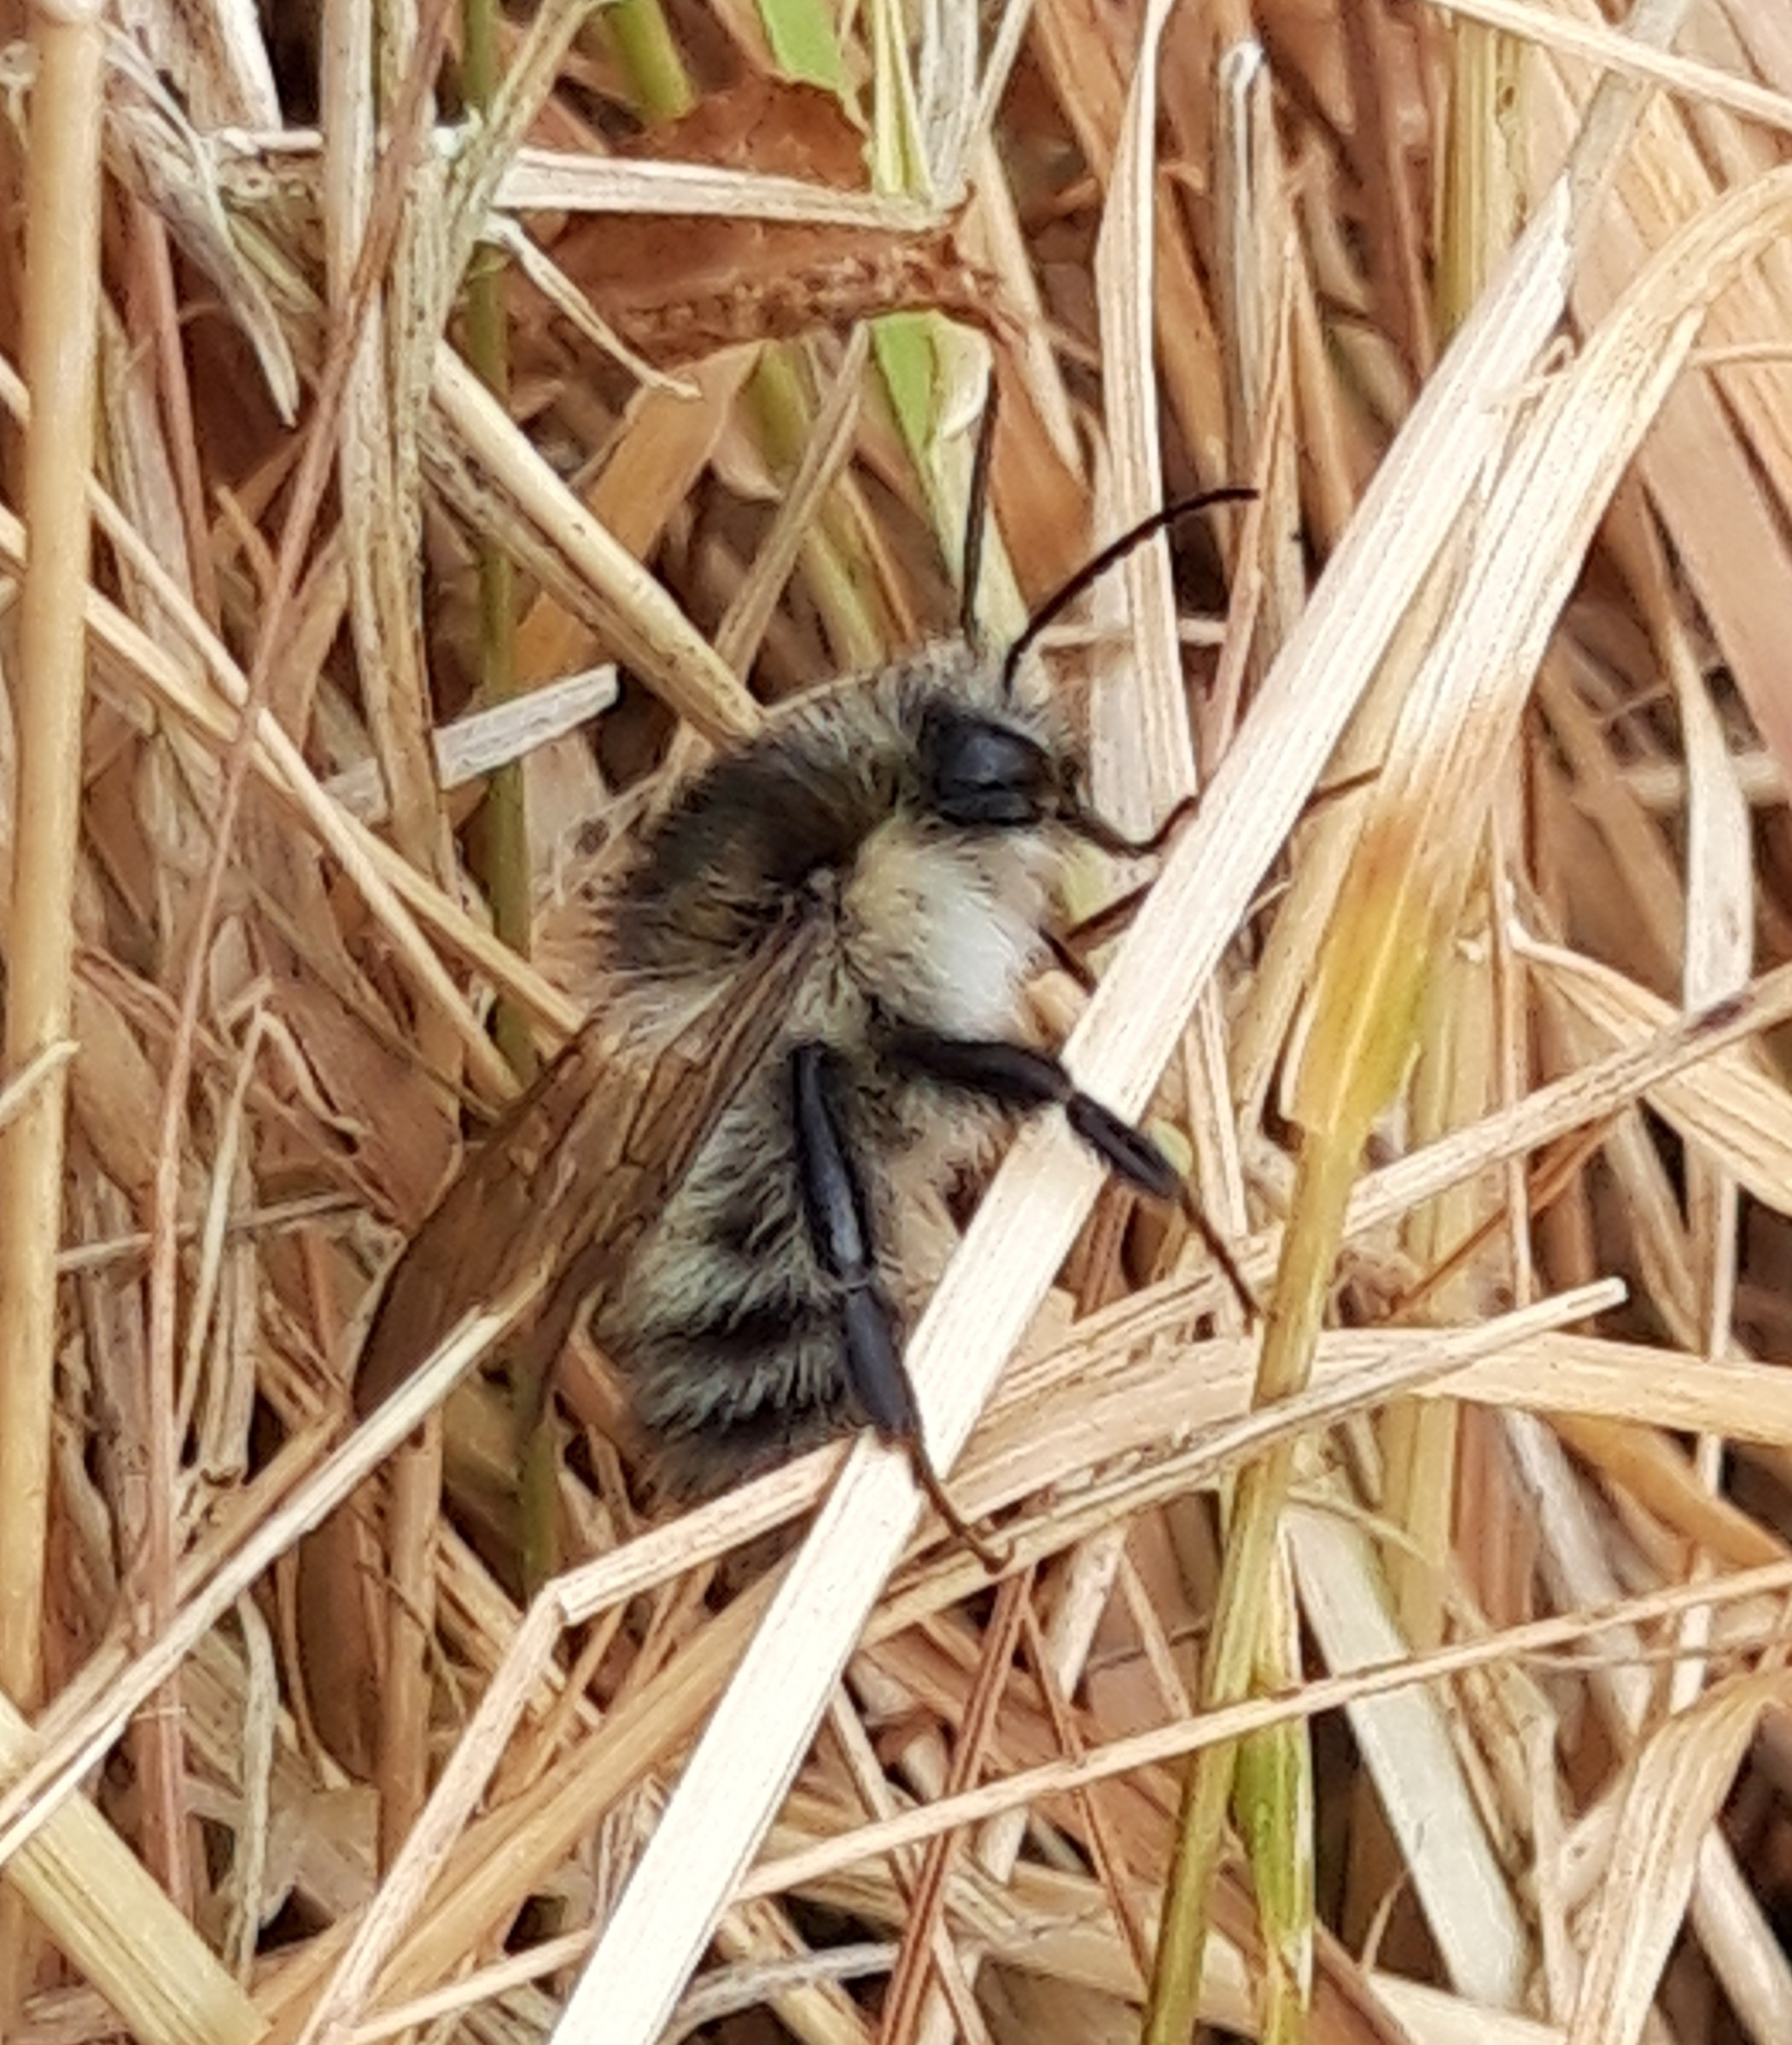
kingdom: Animalia
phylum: Arthropoda
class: Insecta
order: Hymenoptera
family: Apidae
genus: Bombus
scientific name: Bombus pascuorum
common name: Common carder bee
